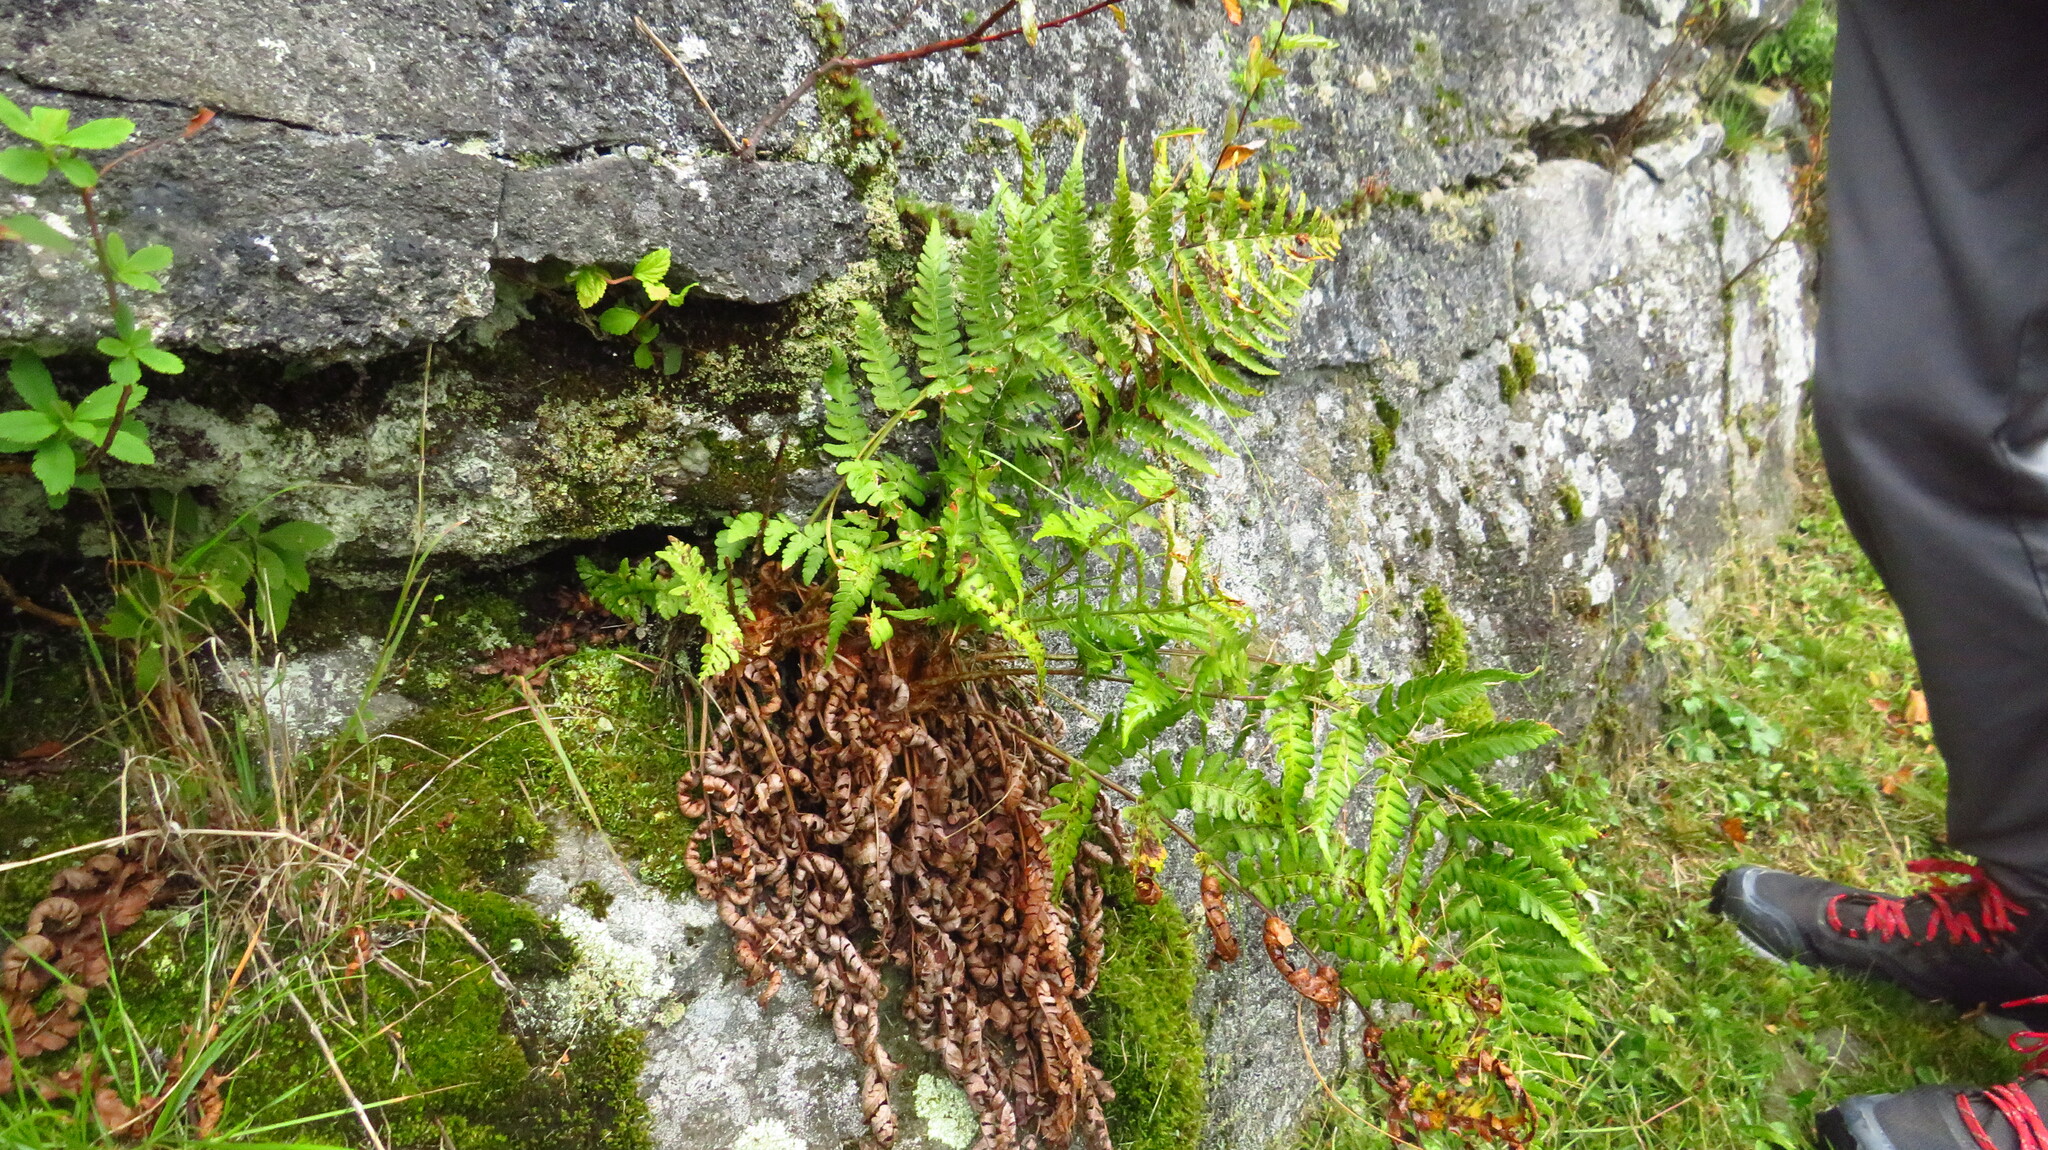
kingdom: Plantae
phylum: Tracheophyta
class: Polypodiopsida
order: Polypodiales
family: Dryopteridaceae
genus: Dryopteris
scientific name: Dryopteris marginalis
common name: Marginal wood fern
